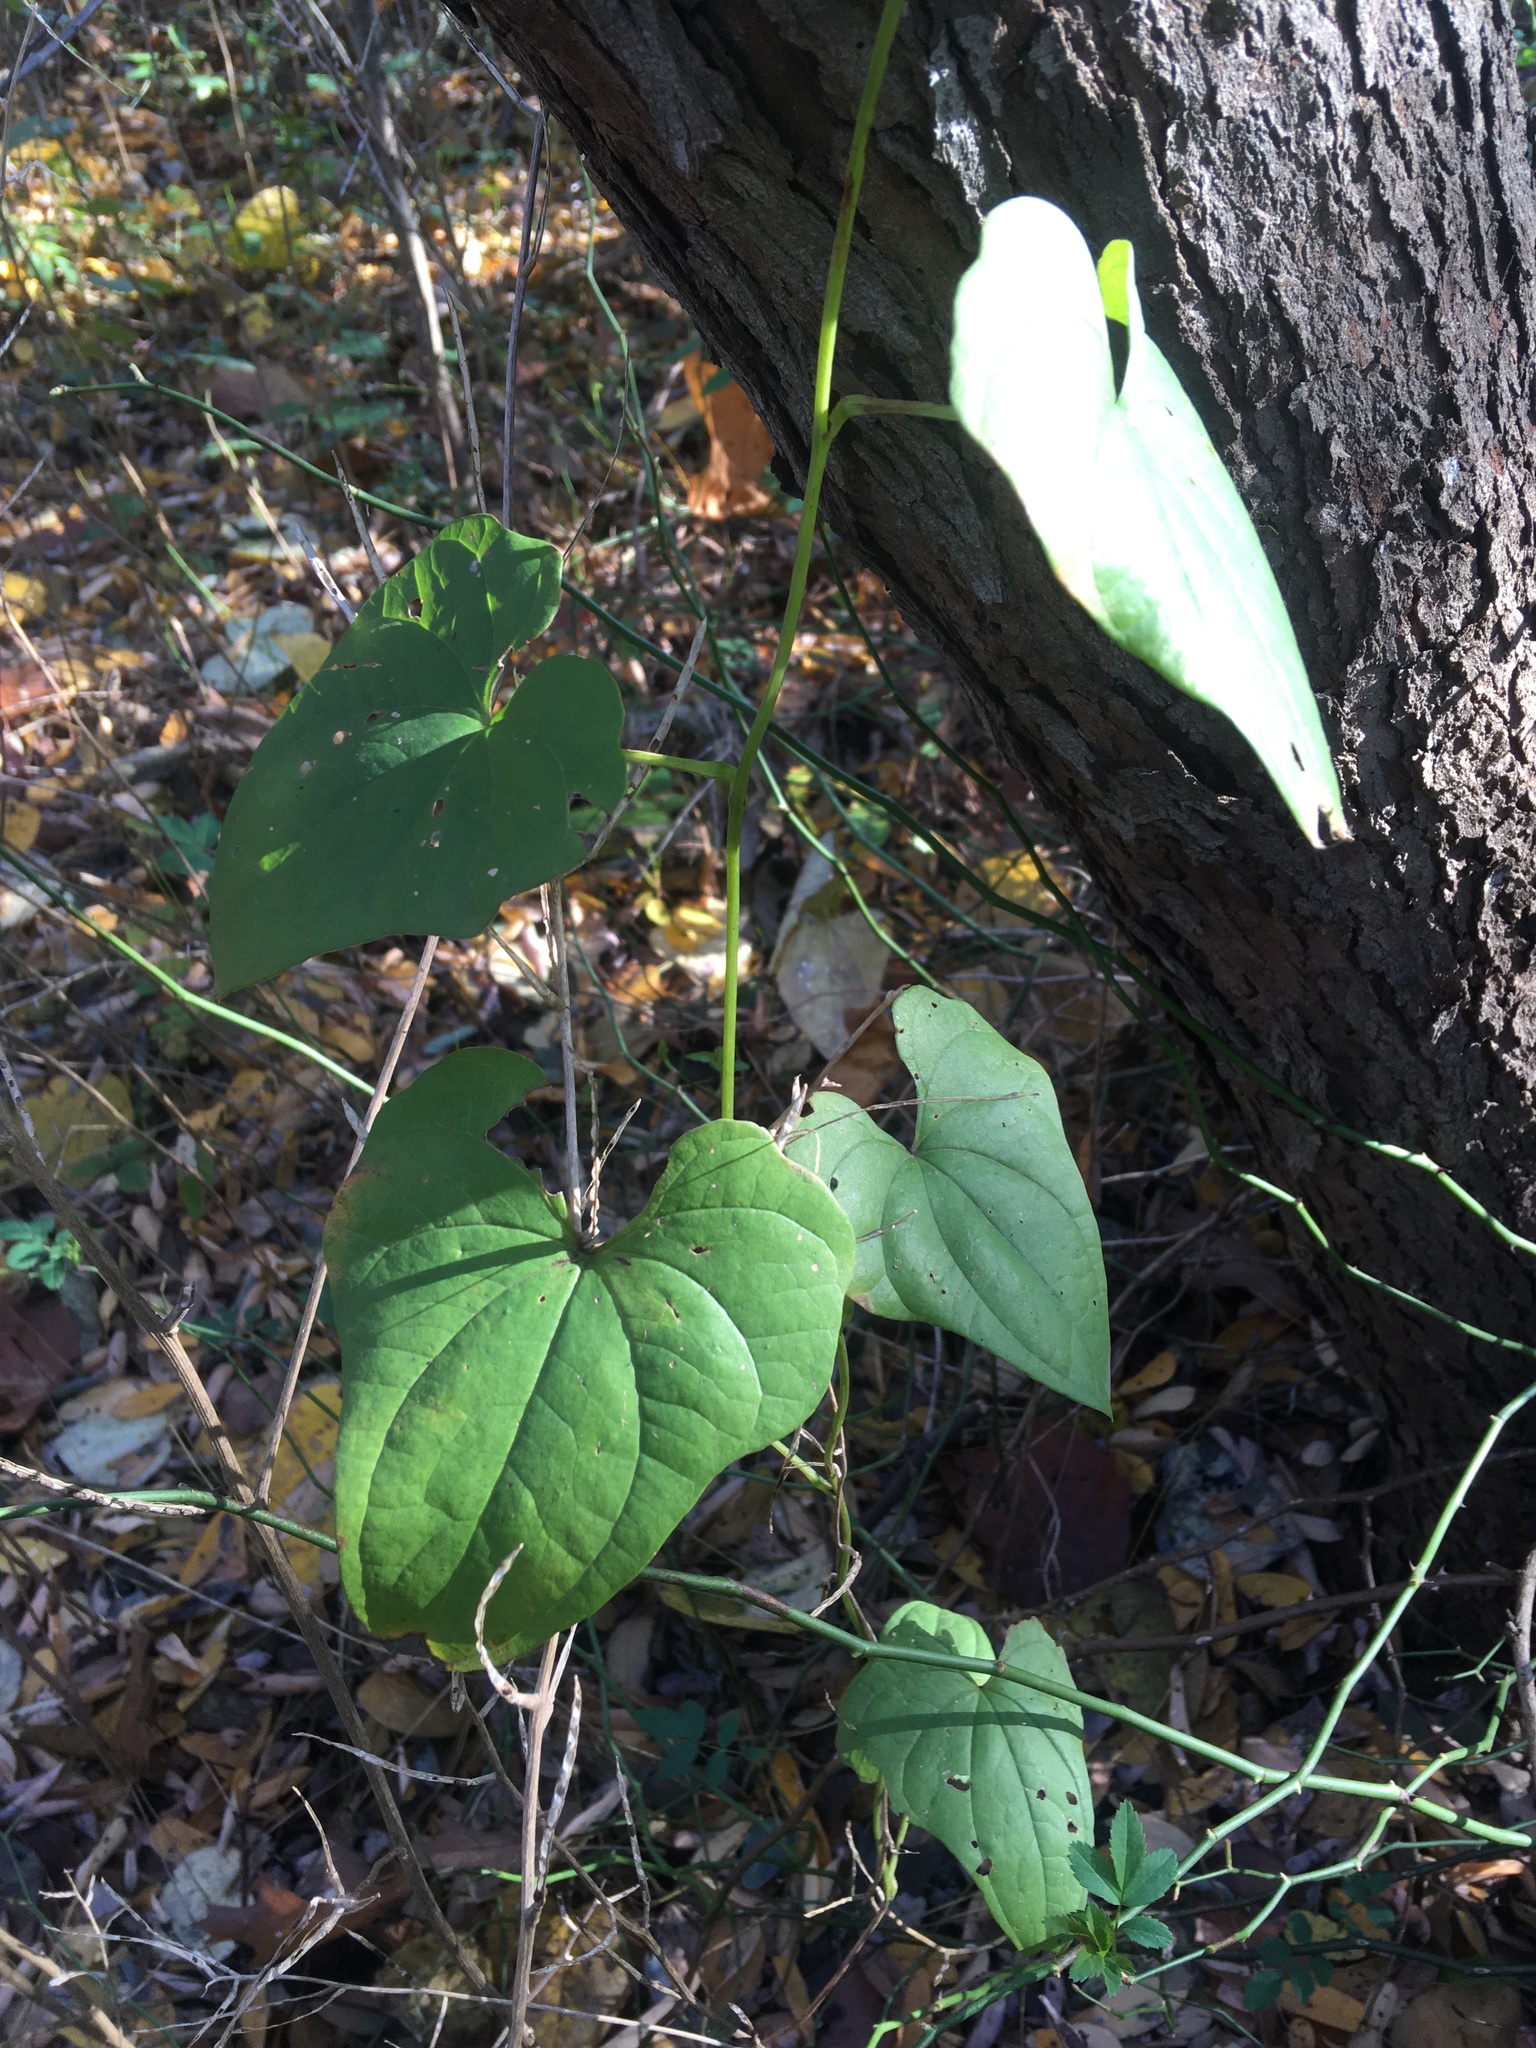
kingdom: Plantae
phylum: Tracheophyta
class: Liliopsida
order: Dioscoreales
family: Dioscoreaceae
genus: Dioscorea
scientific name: Dioscorea polystachya
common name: Chinese yam
